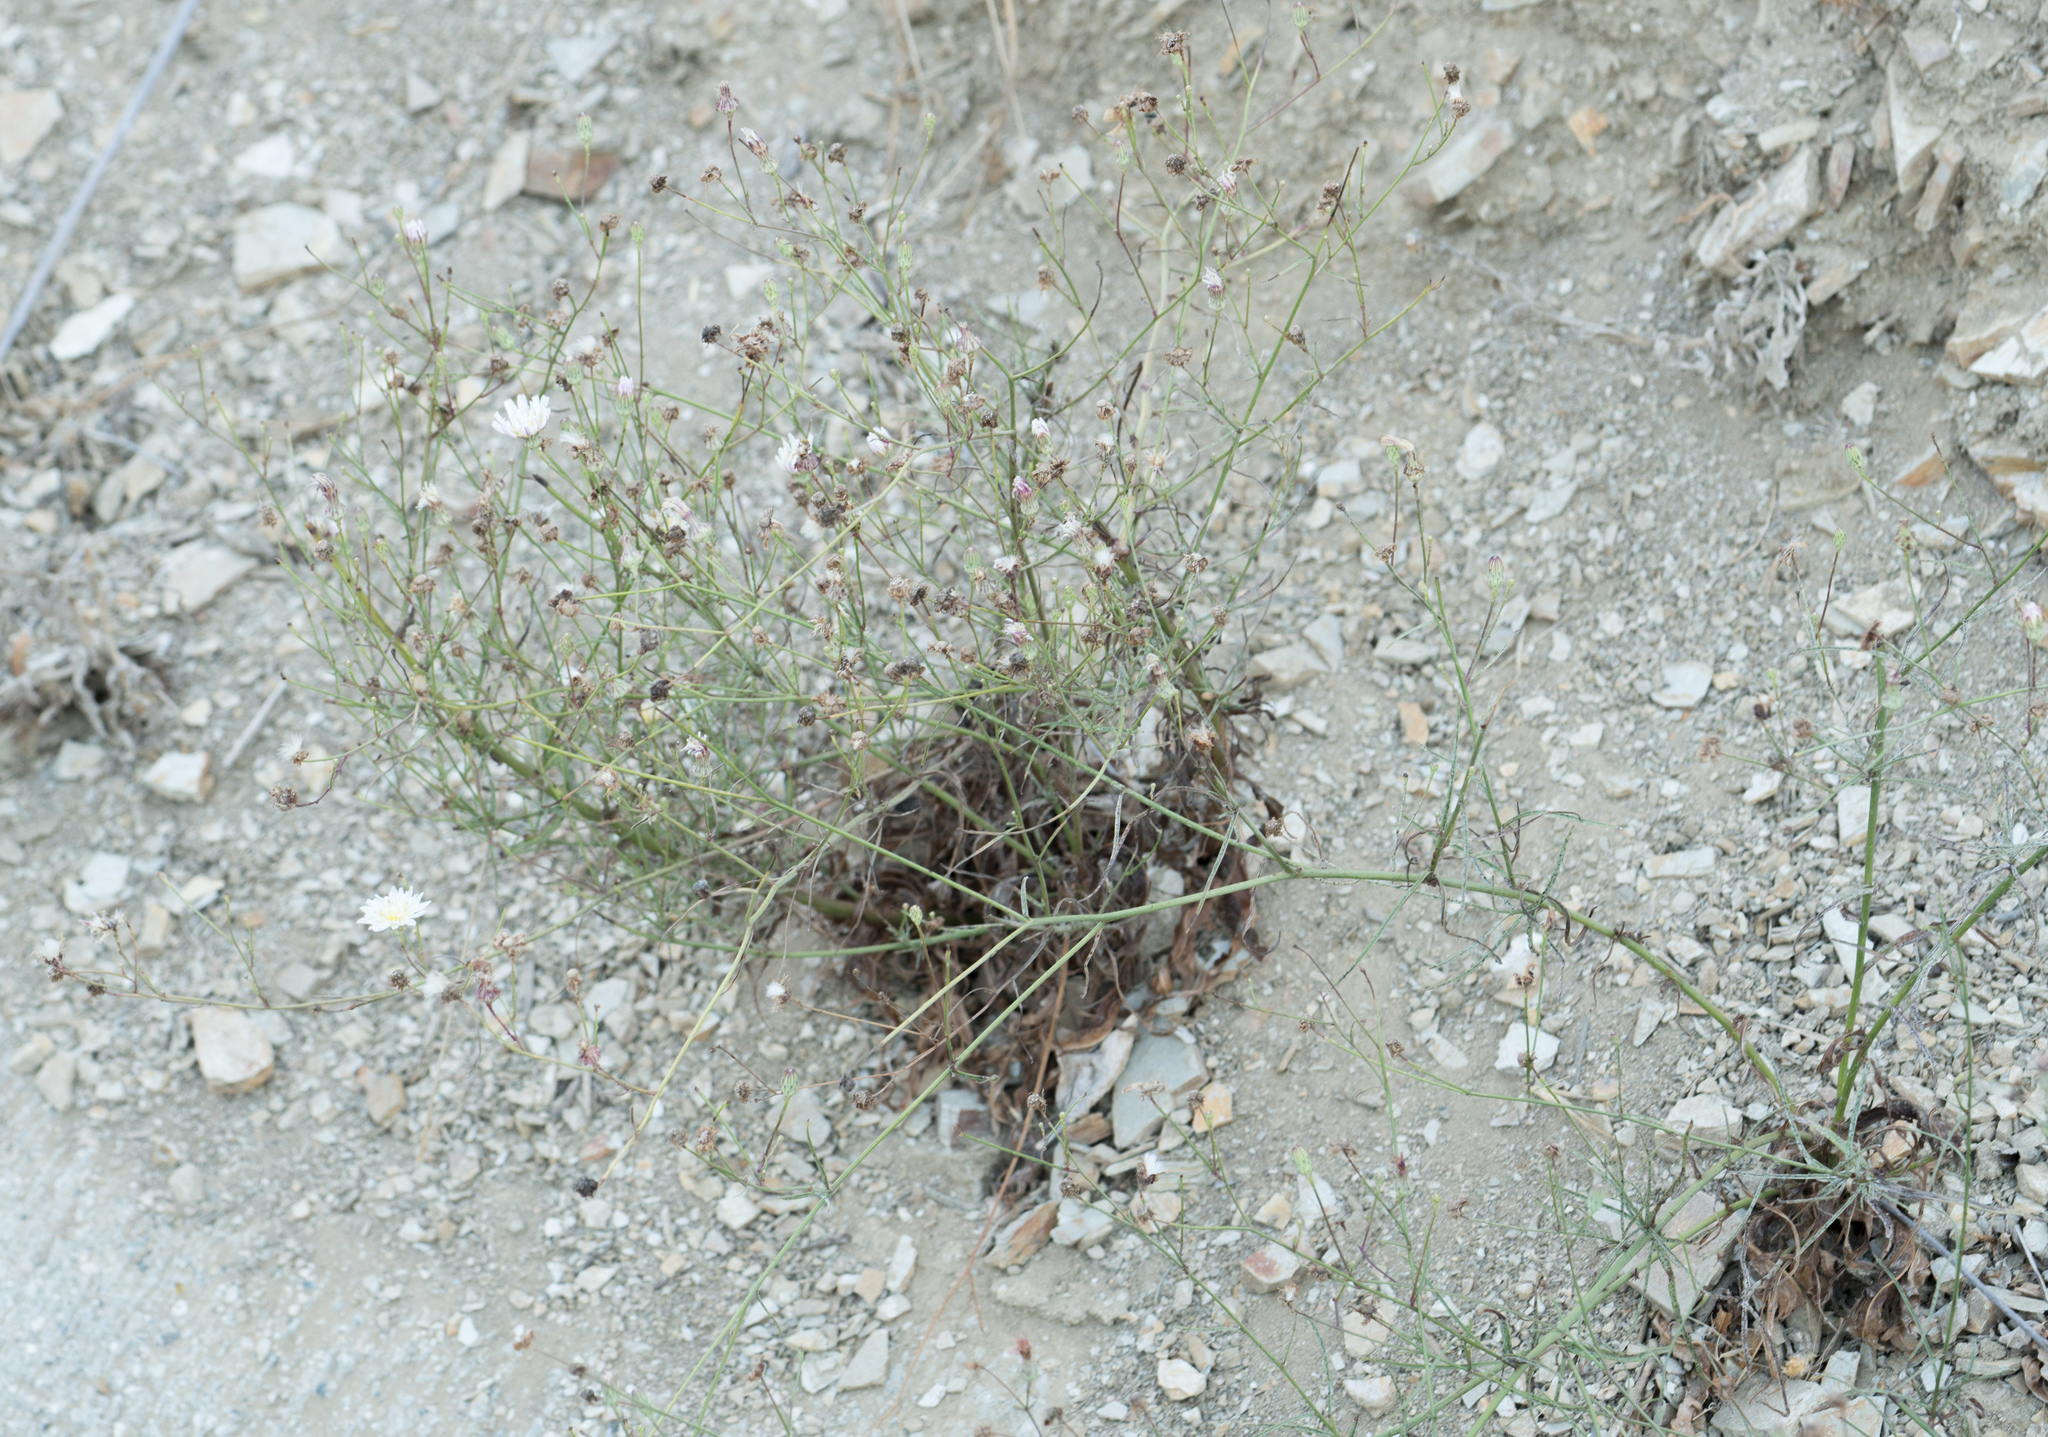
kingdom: Plantae
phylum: Tracheophyta
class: Magnoliopsida
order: Asterales
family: Asteraceae
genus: Malacothrix
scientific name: Malacothrix saxatilis
